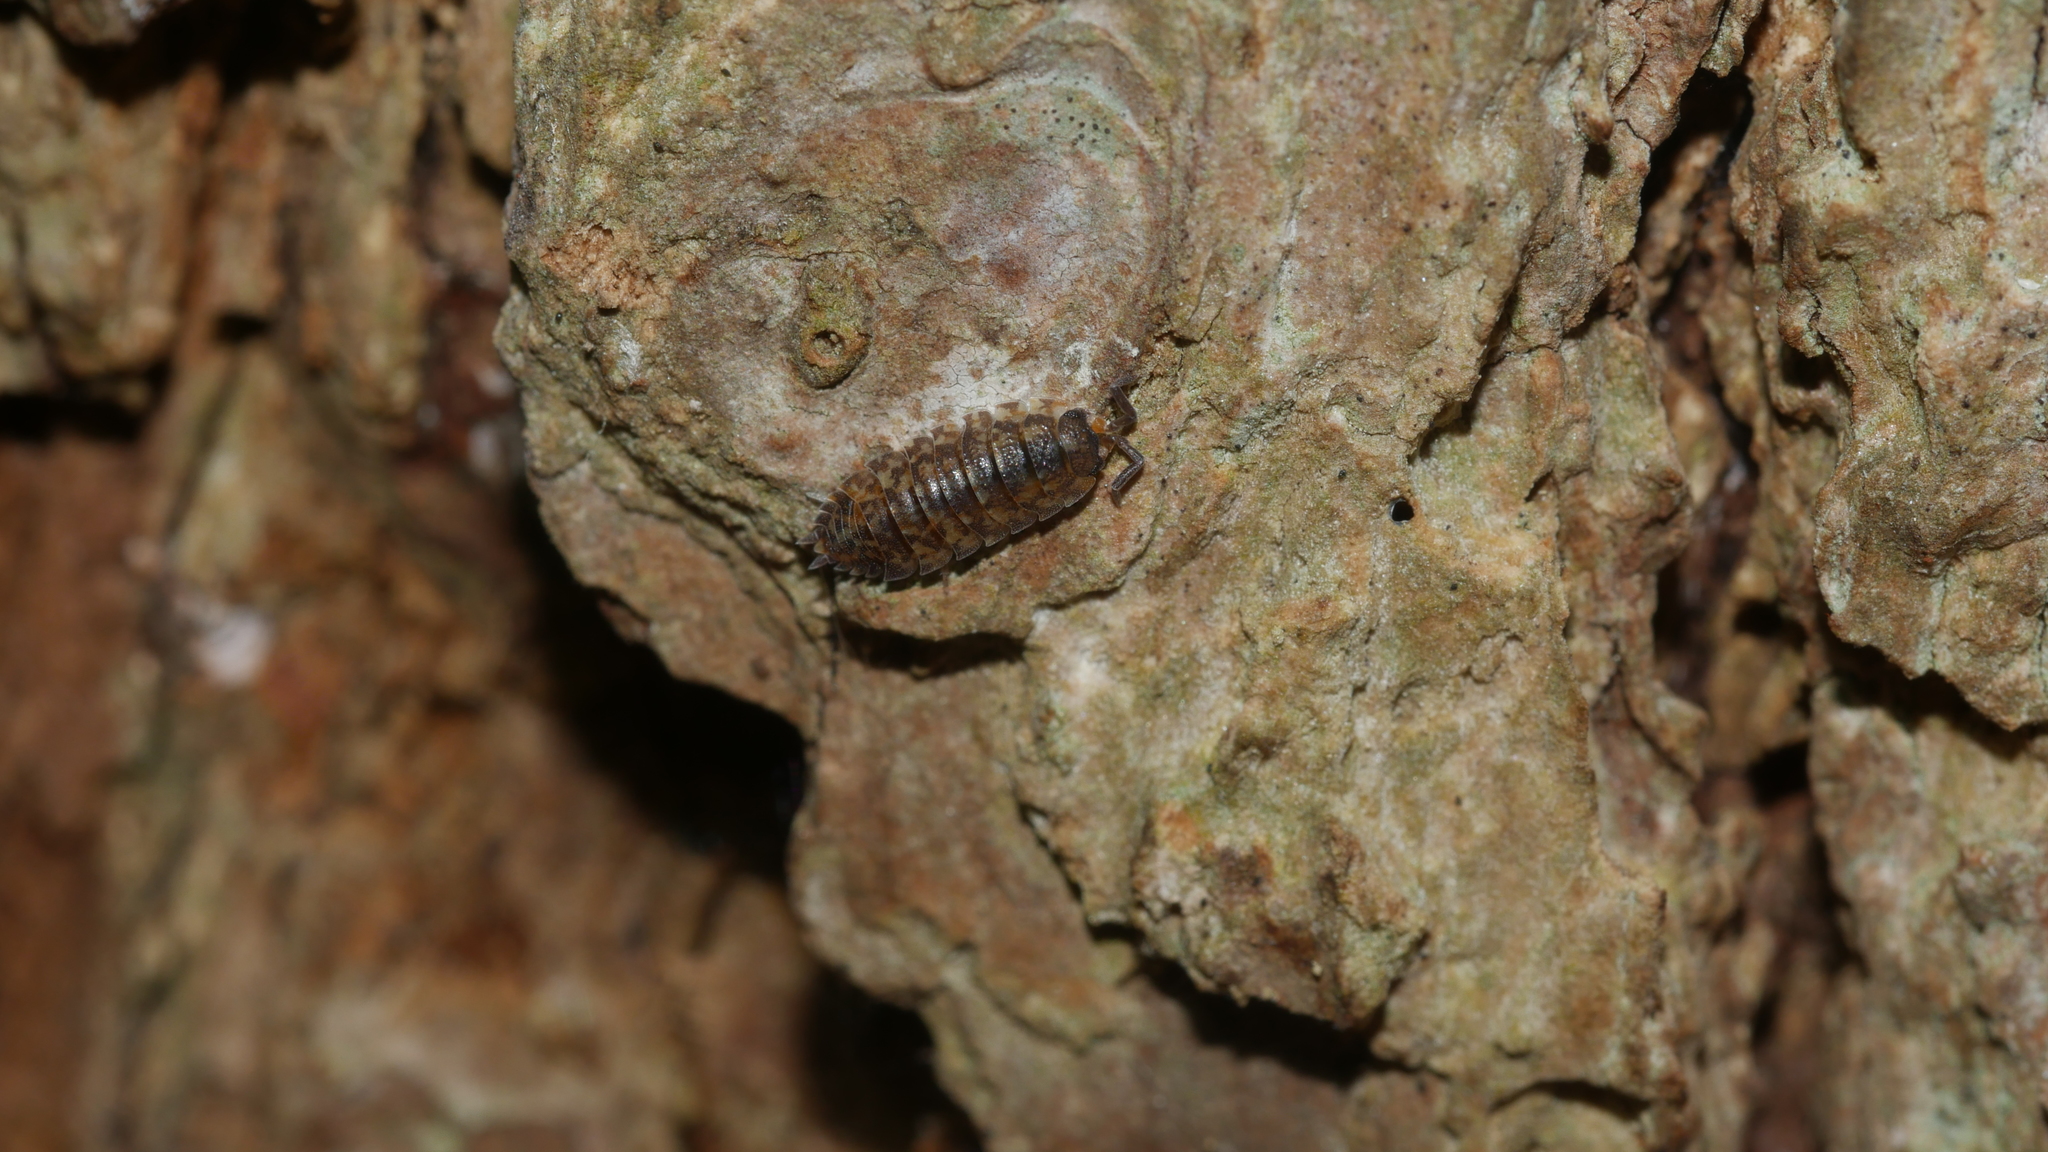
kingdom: Animalia
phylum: Arthropoda
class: Malacostraca
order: Isopoda
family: Porcellionidae
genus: Porcellio
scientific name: Porcellio scaber
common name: Common rough woodlouse
